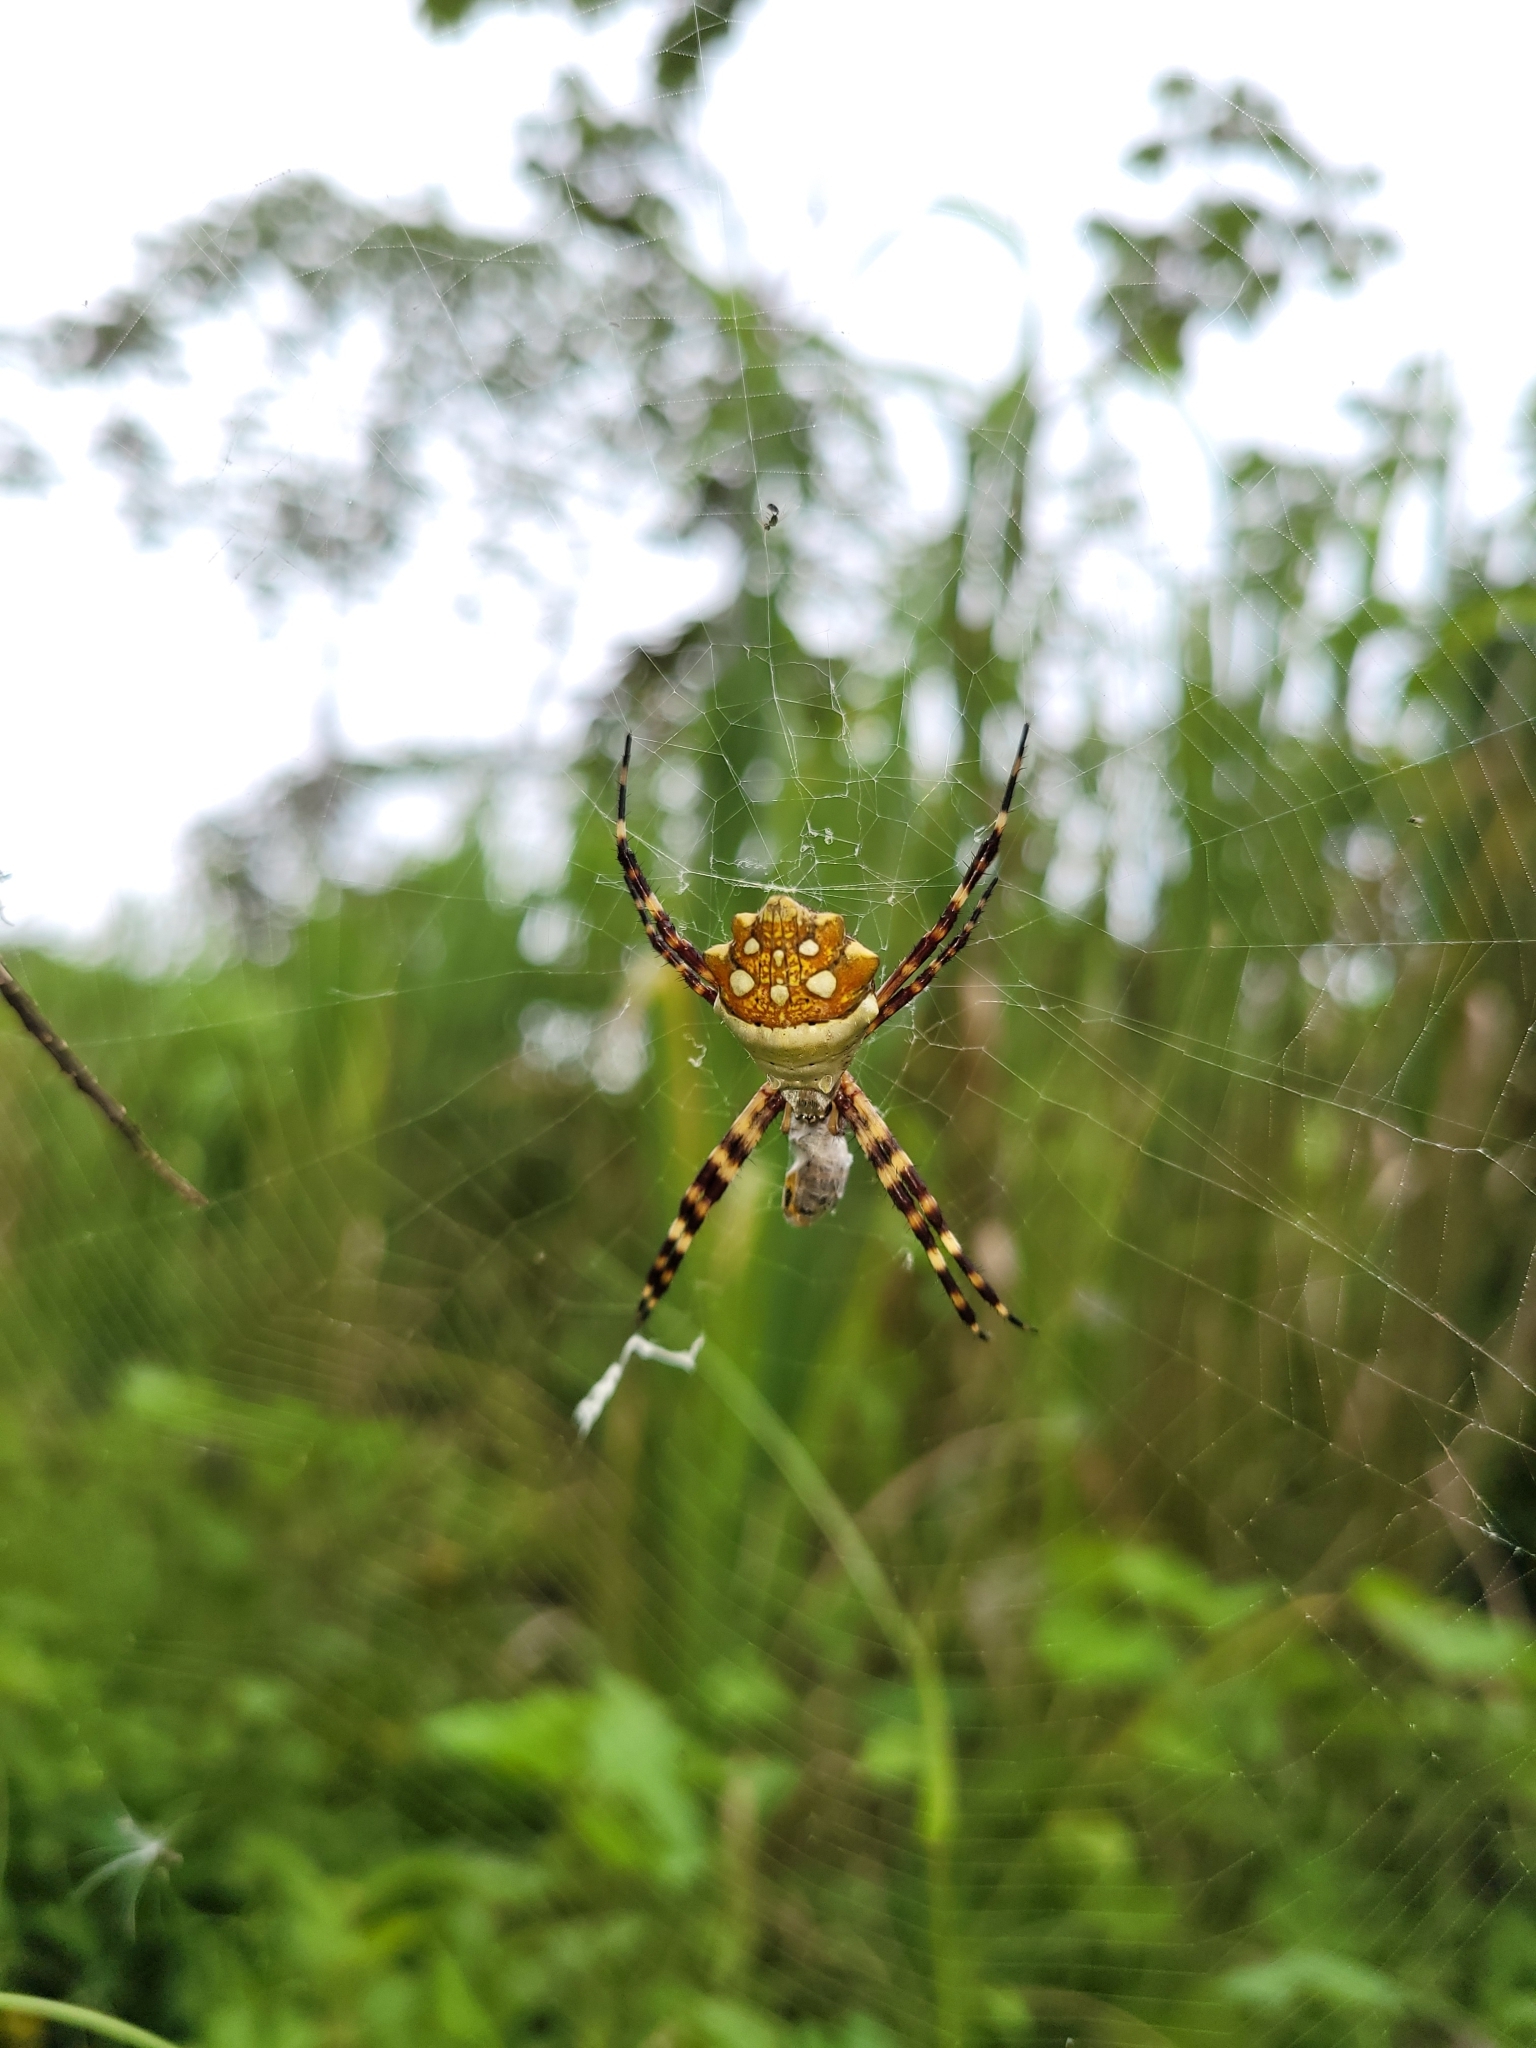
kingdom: Animalia
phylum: Arthropoda
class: Arachnida
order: Araneae
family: Araneidae
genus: Argiope
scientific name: Argiope argentata
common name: Orb weavers
